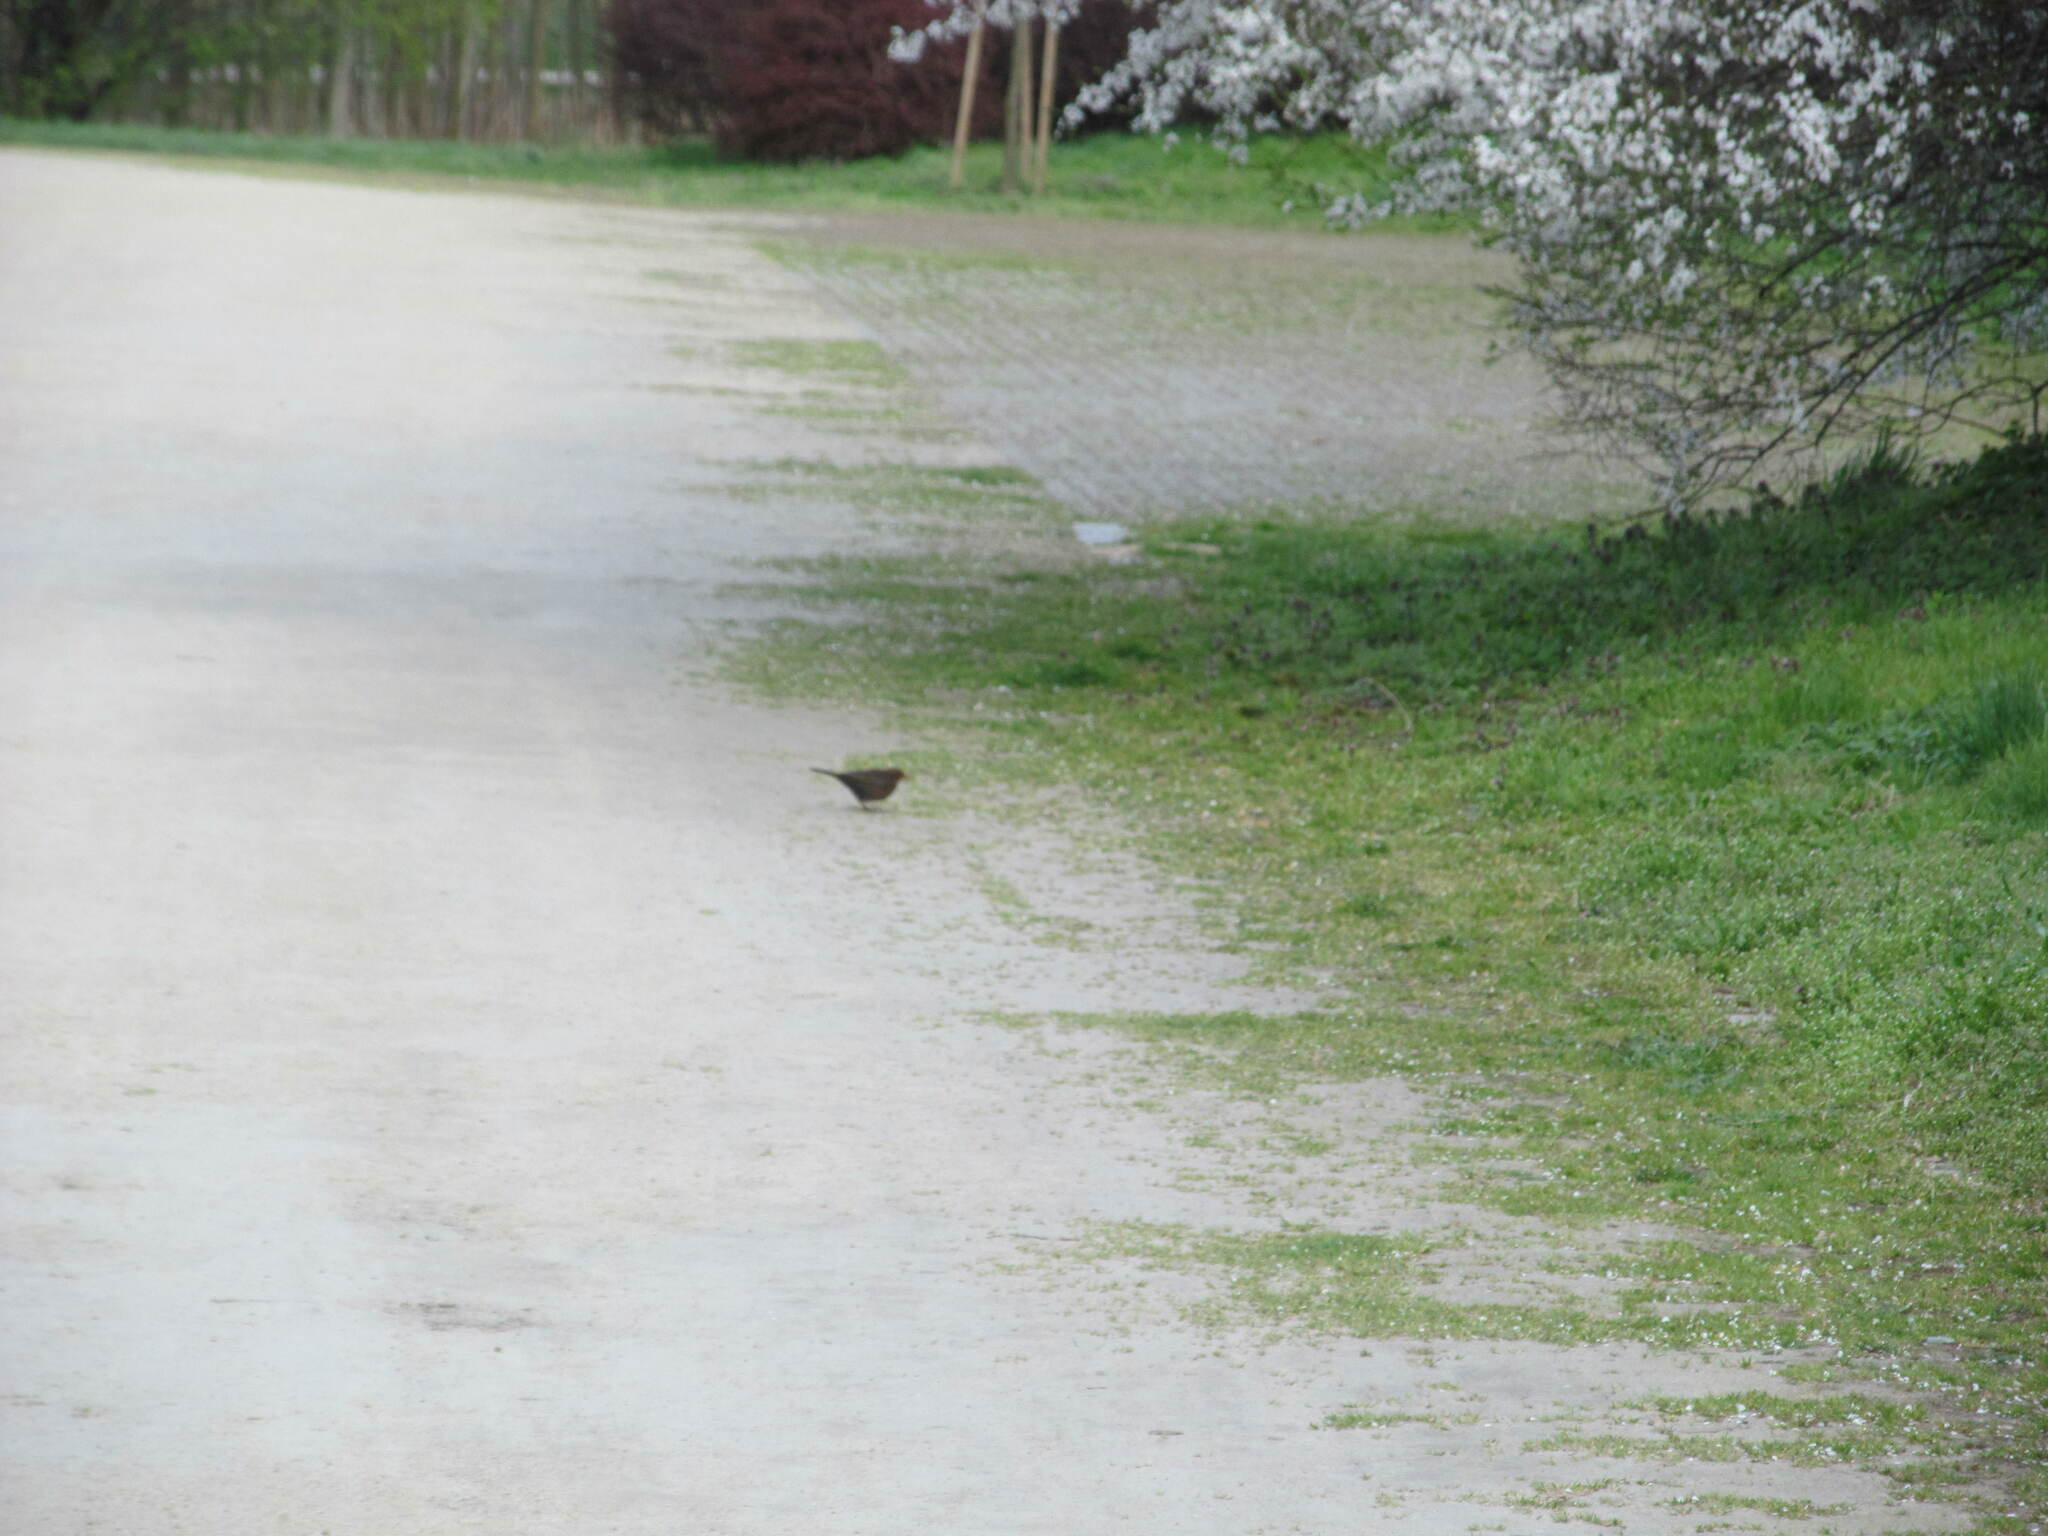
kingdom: Animalia
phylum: Chordata
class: Aves
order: Passeriformes
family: Turdidae
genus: Turdus
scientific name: Turdus merula
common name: Common blackbird
